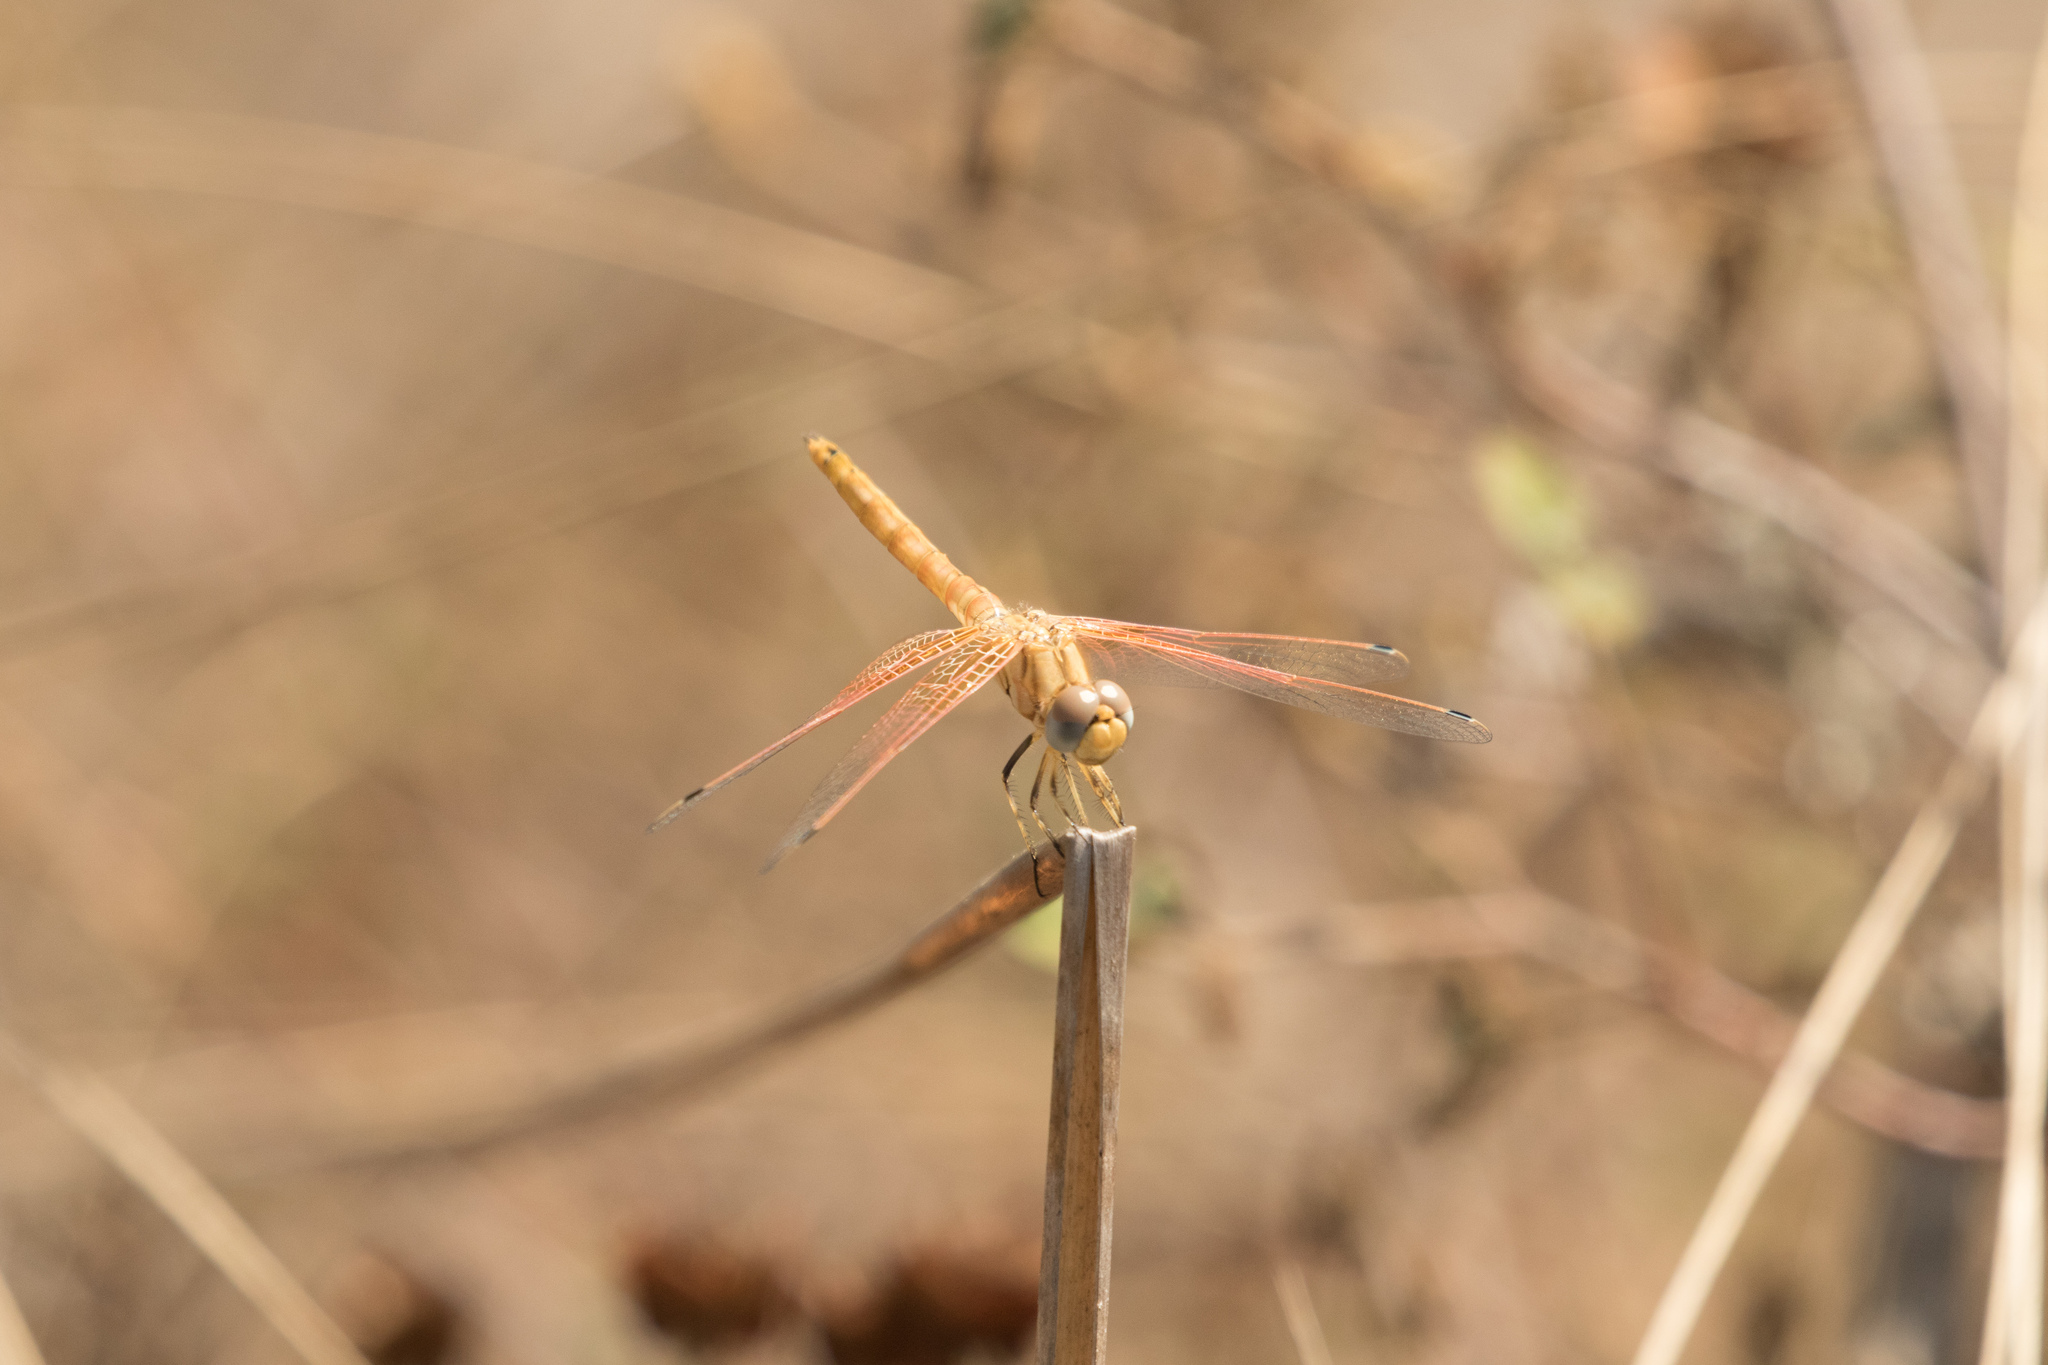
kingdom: Animalia
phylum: Arthropoda
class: Insecta
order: Odonata
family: Libellulidae
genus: Trithemis
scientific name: Trithemis kirbyi
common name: Kirby's dropwing
